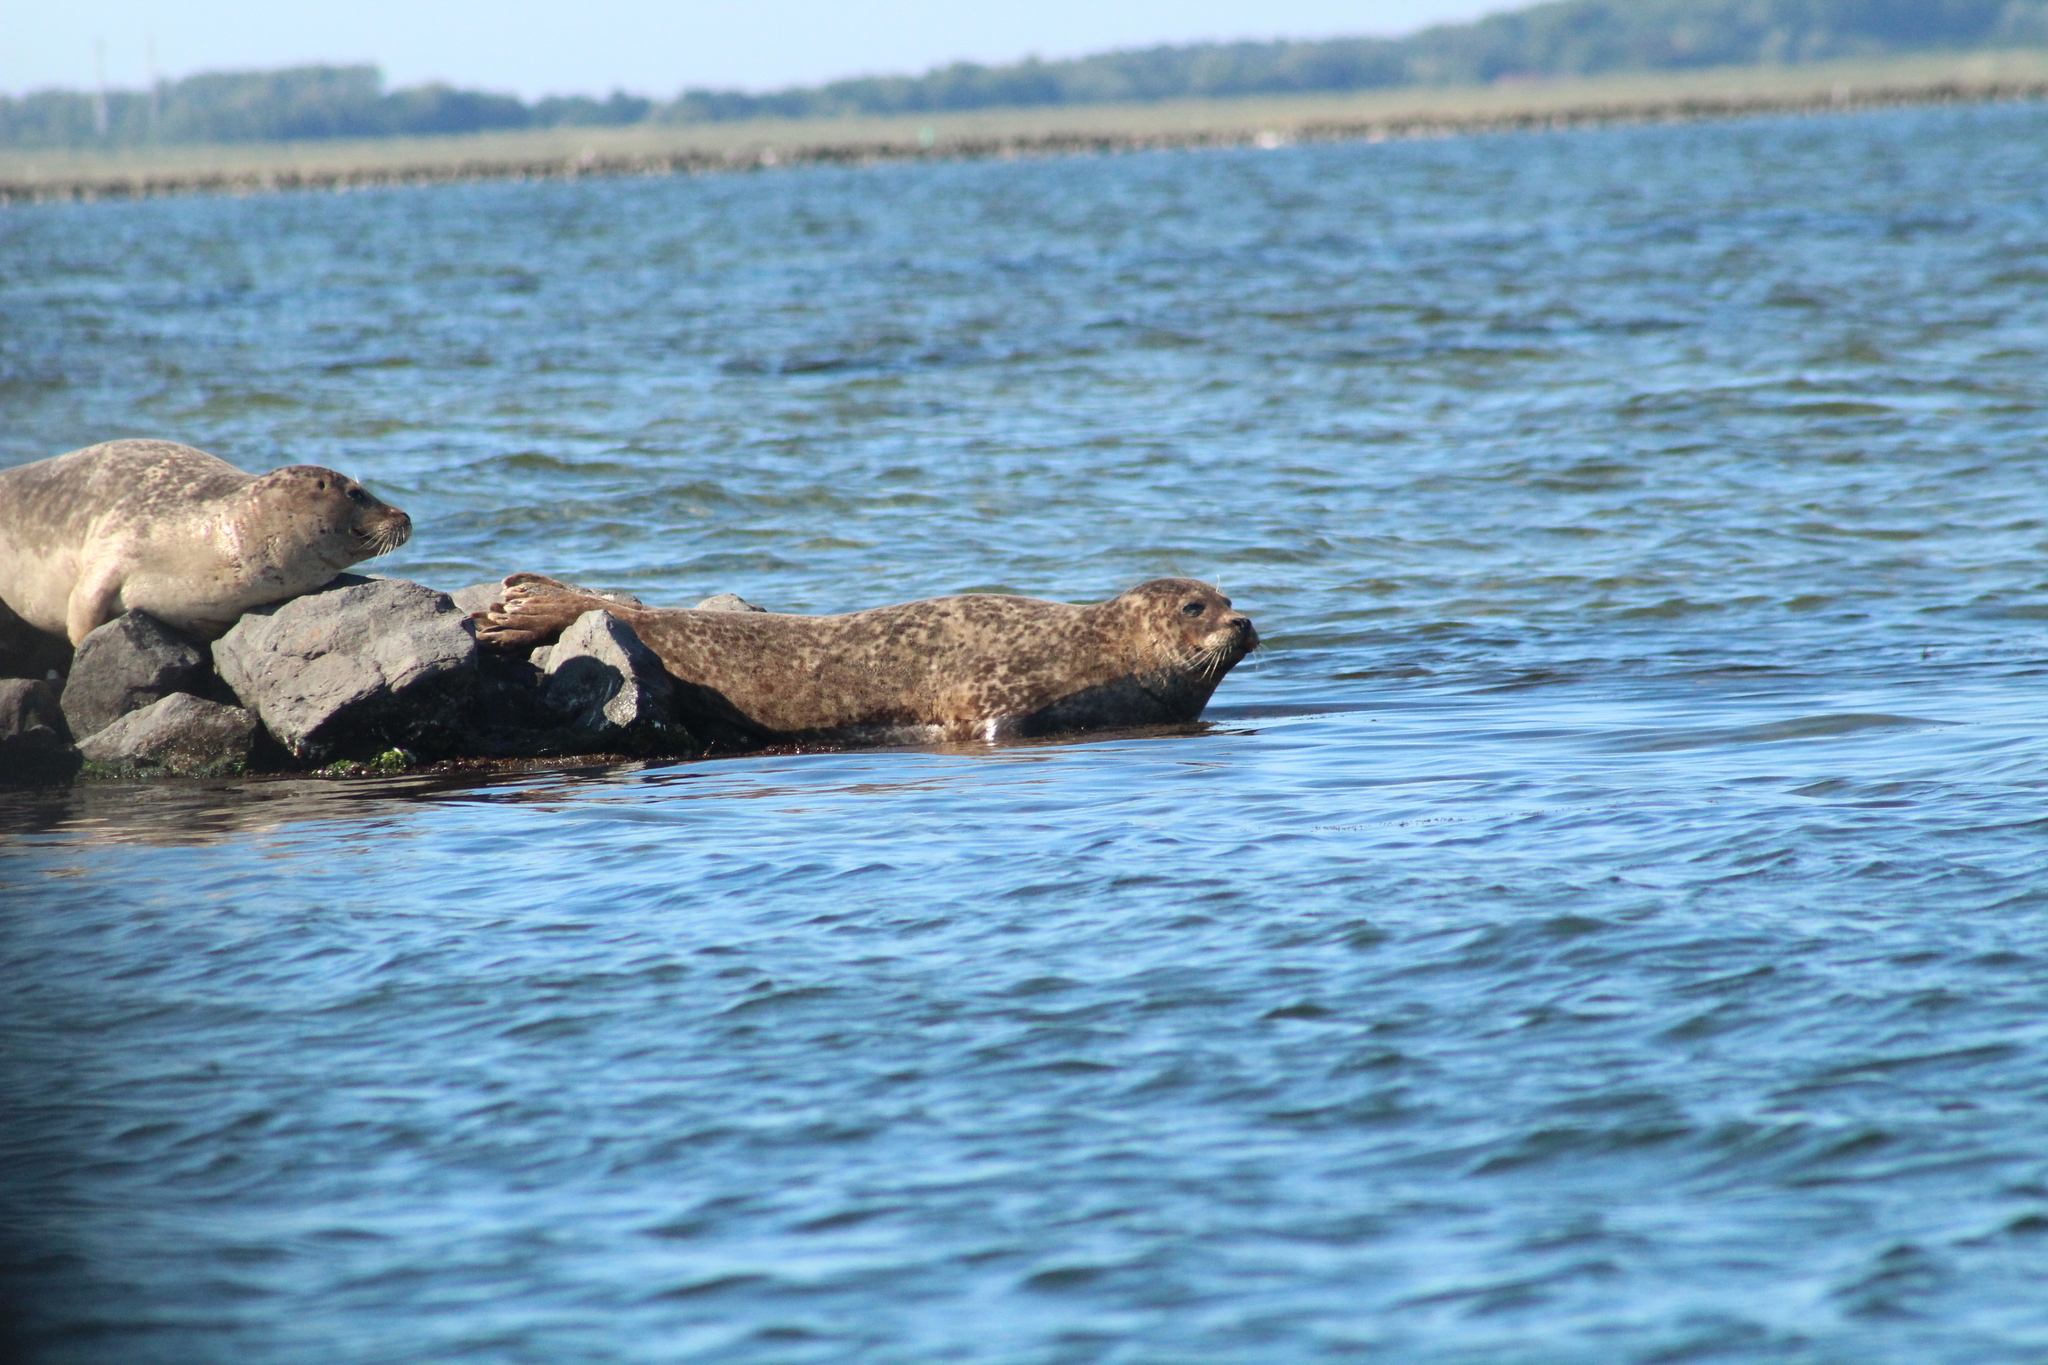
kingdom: Animalia
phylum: Chordata
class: Mammalia
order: Carnivora
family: Phocidae
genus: Phoca
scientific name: Phoca vitulina
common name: Harbor seal
